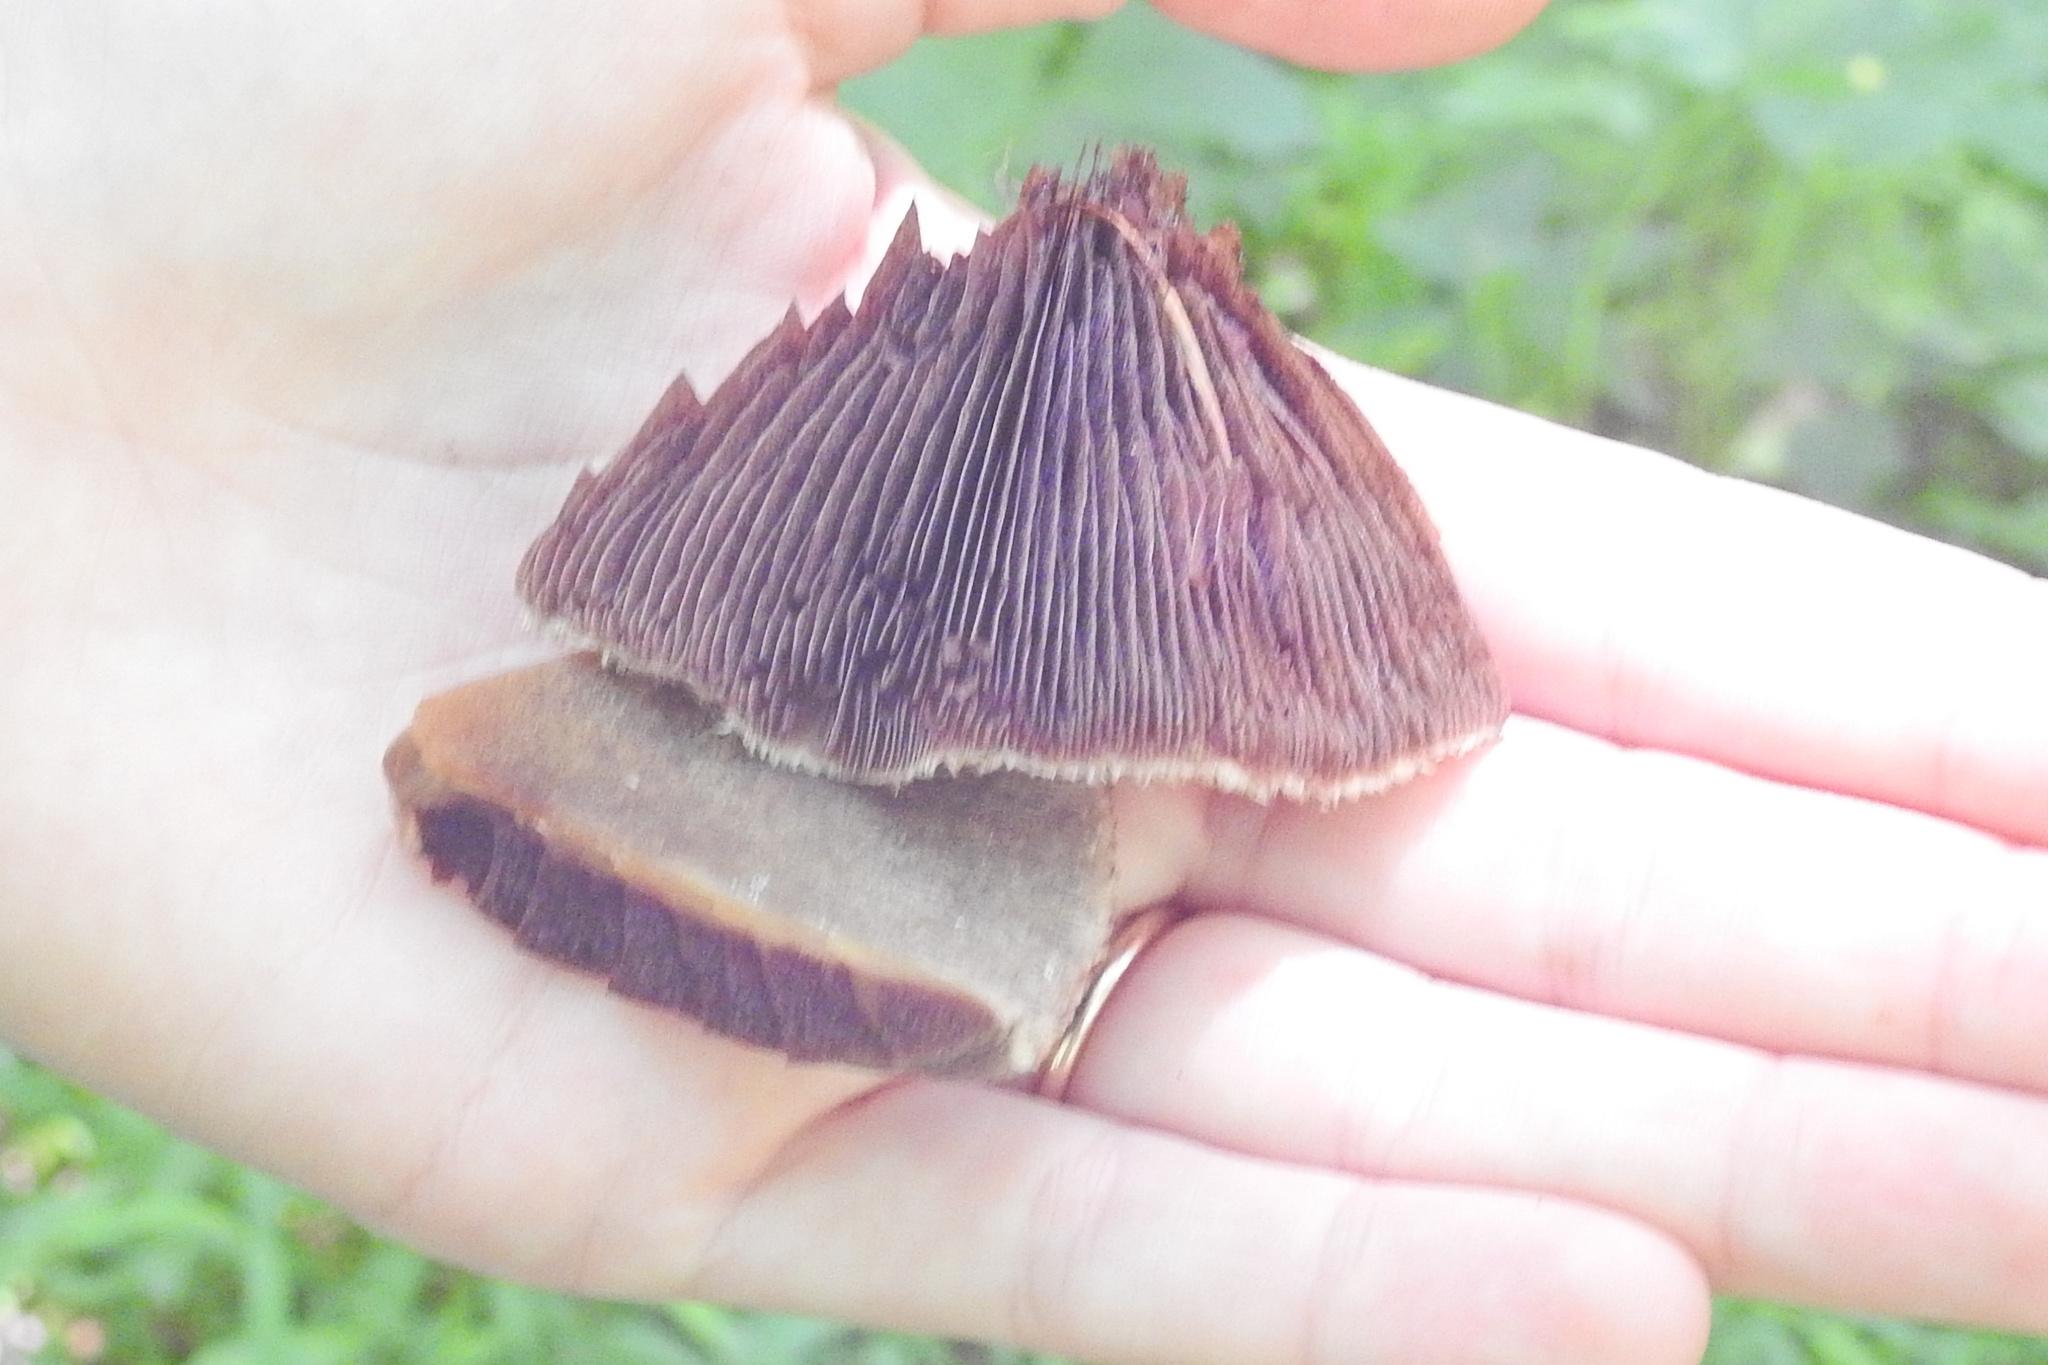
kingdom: Fungi
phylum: Basidiomycota
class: Agaricomycetes
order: Agaricales
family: Psathyrellaceae
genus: Lacrymaria
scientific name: Lacrymaria lacrymabunda
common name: Weeping widow
